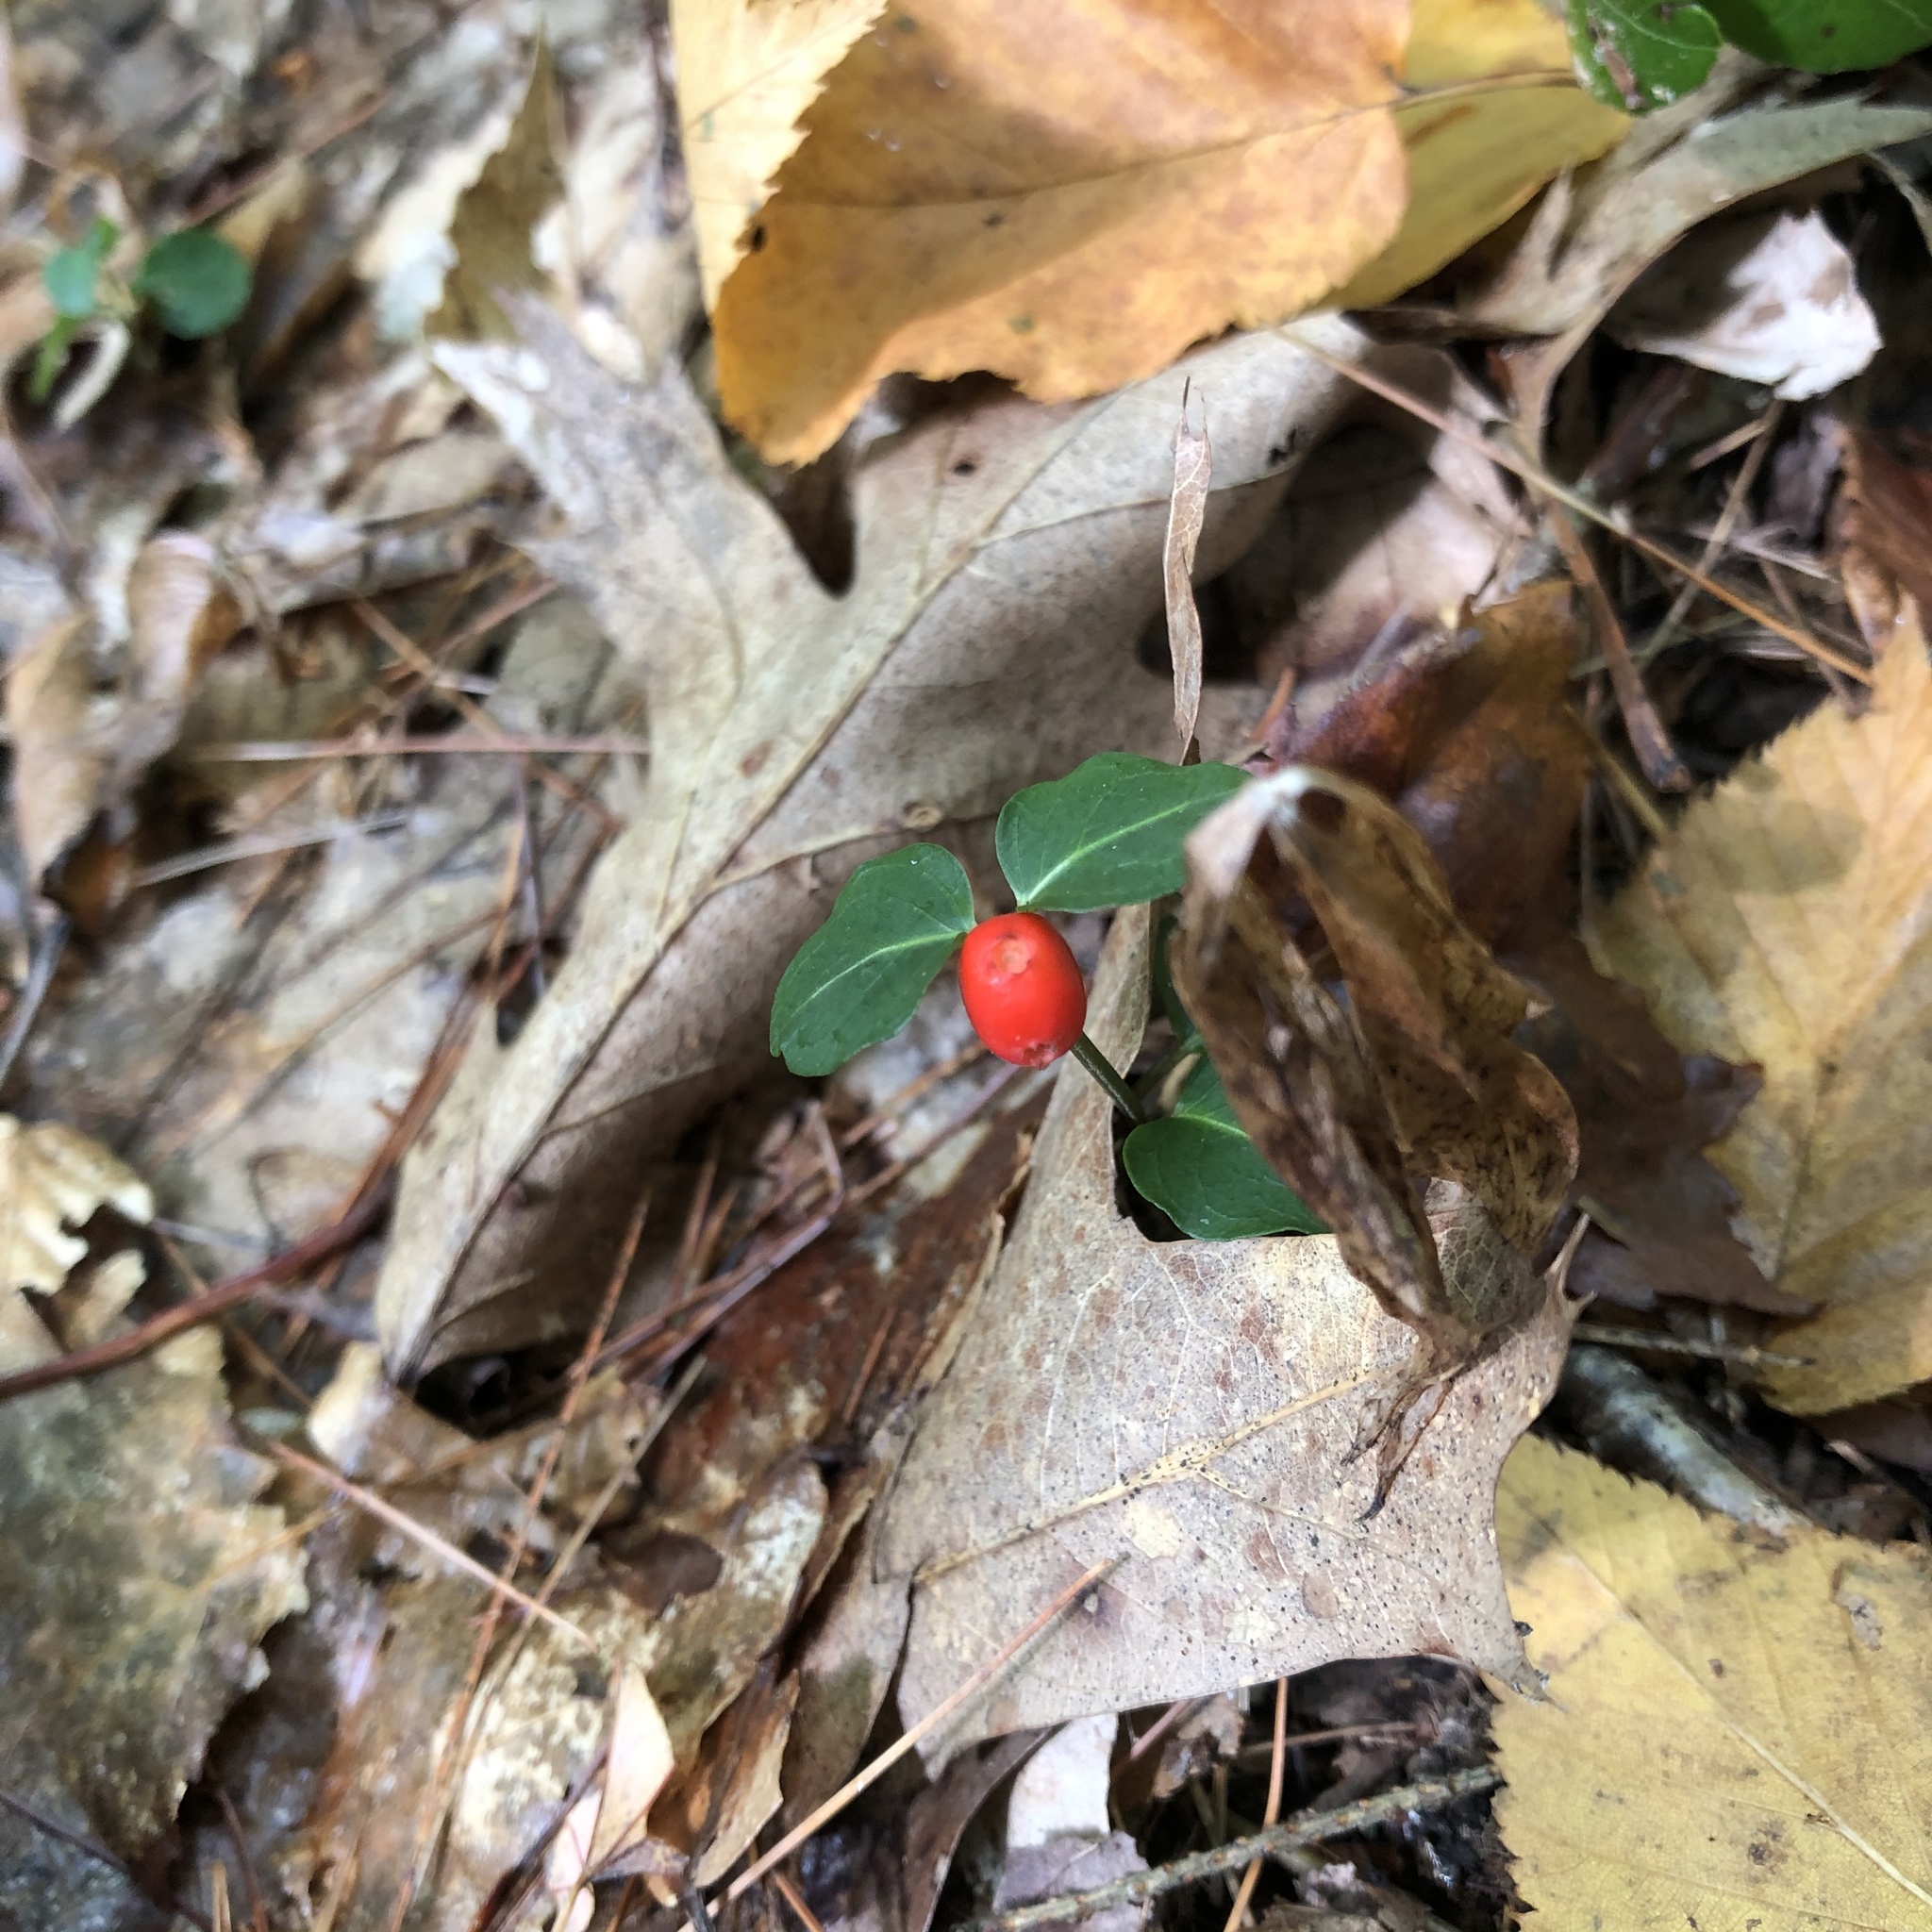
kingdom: Plantae
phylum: Tracheophyta
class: Magnoliopsida
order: Gentianales
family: Rubiaceae
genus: Mitchella
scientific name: Mitchella repens
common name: Partridge-berry
